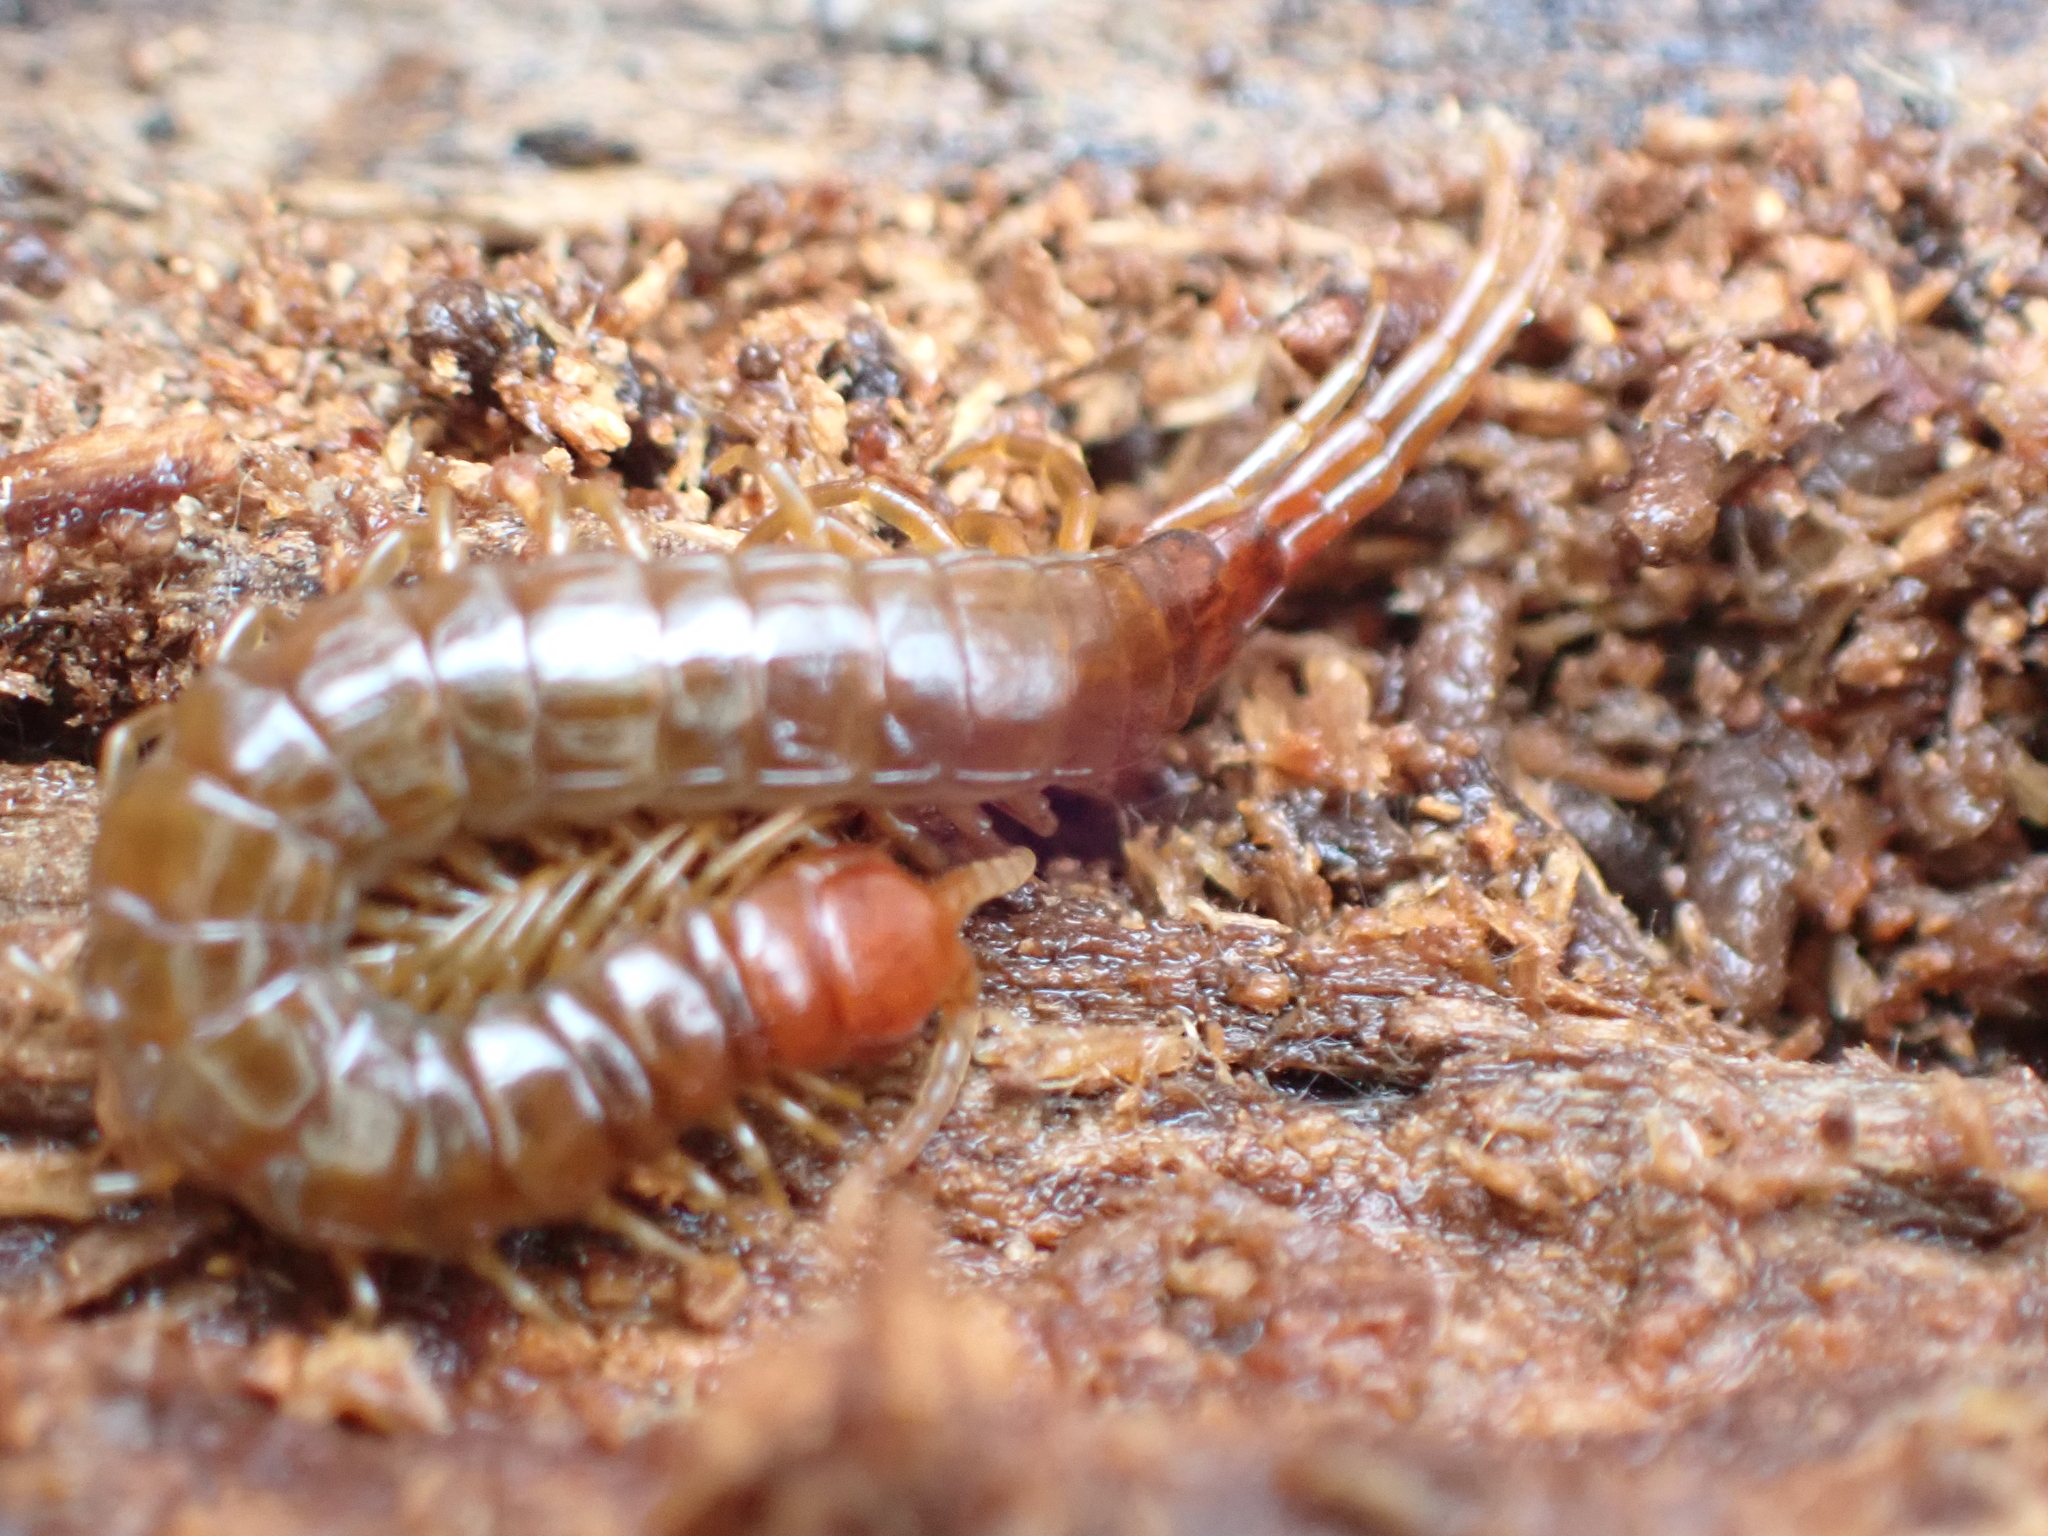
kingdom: Animalia
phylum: Arthropoda
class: Chilopoda
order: Scolopendromorpha
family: Scolopocryptopidae
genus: Scolopocryptops
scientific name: Scolopocryptops nigridius
